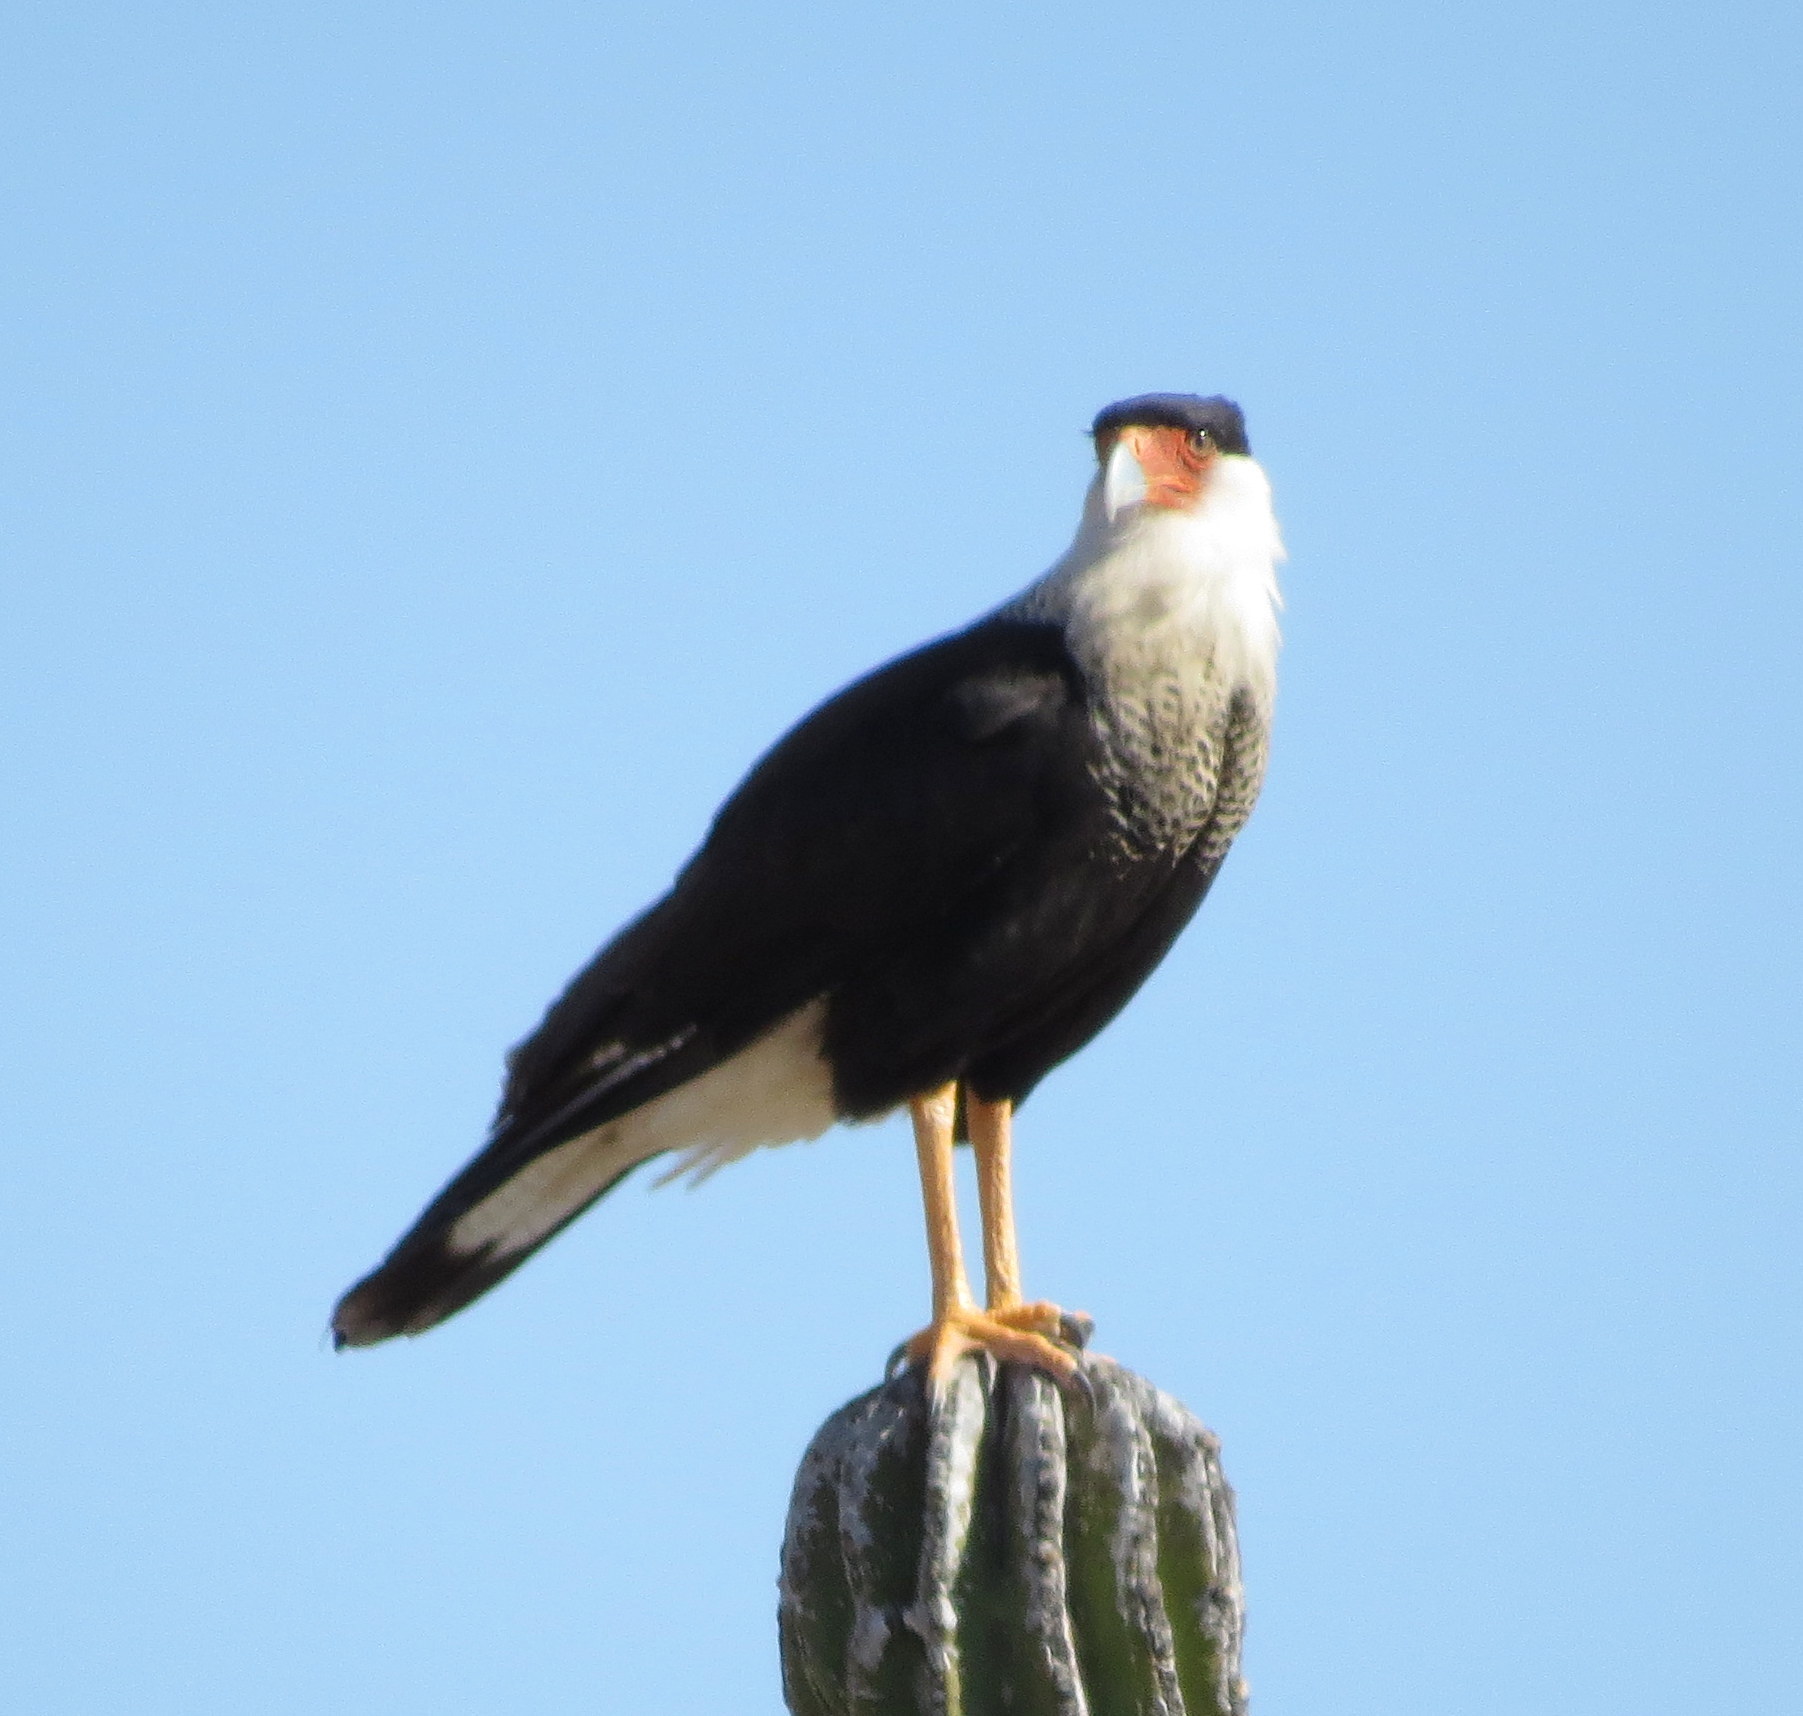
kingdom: Animalia
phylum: Chordata
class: Aves
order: Falconiformes
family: Falconidae
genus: Caracara
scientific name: Caracara plancus
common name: Southern caracara
